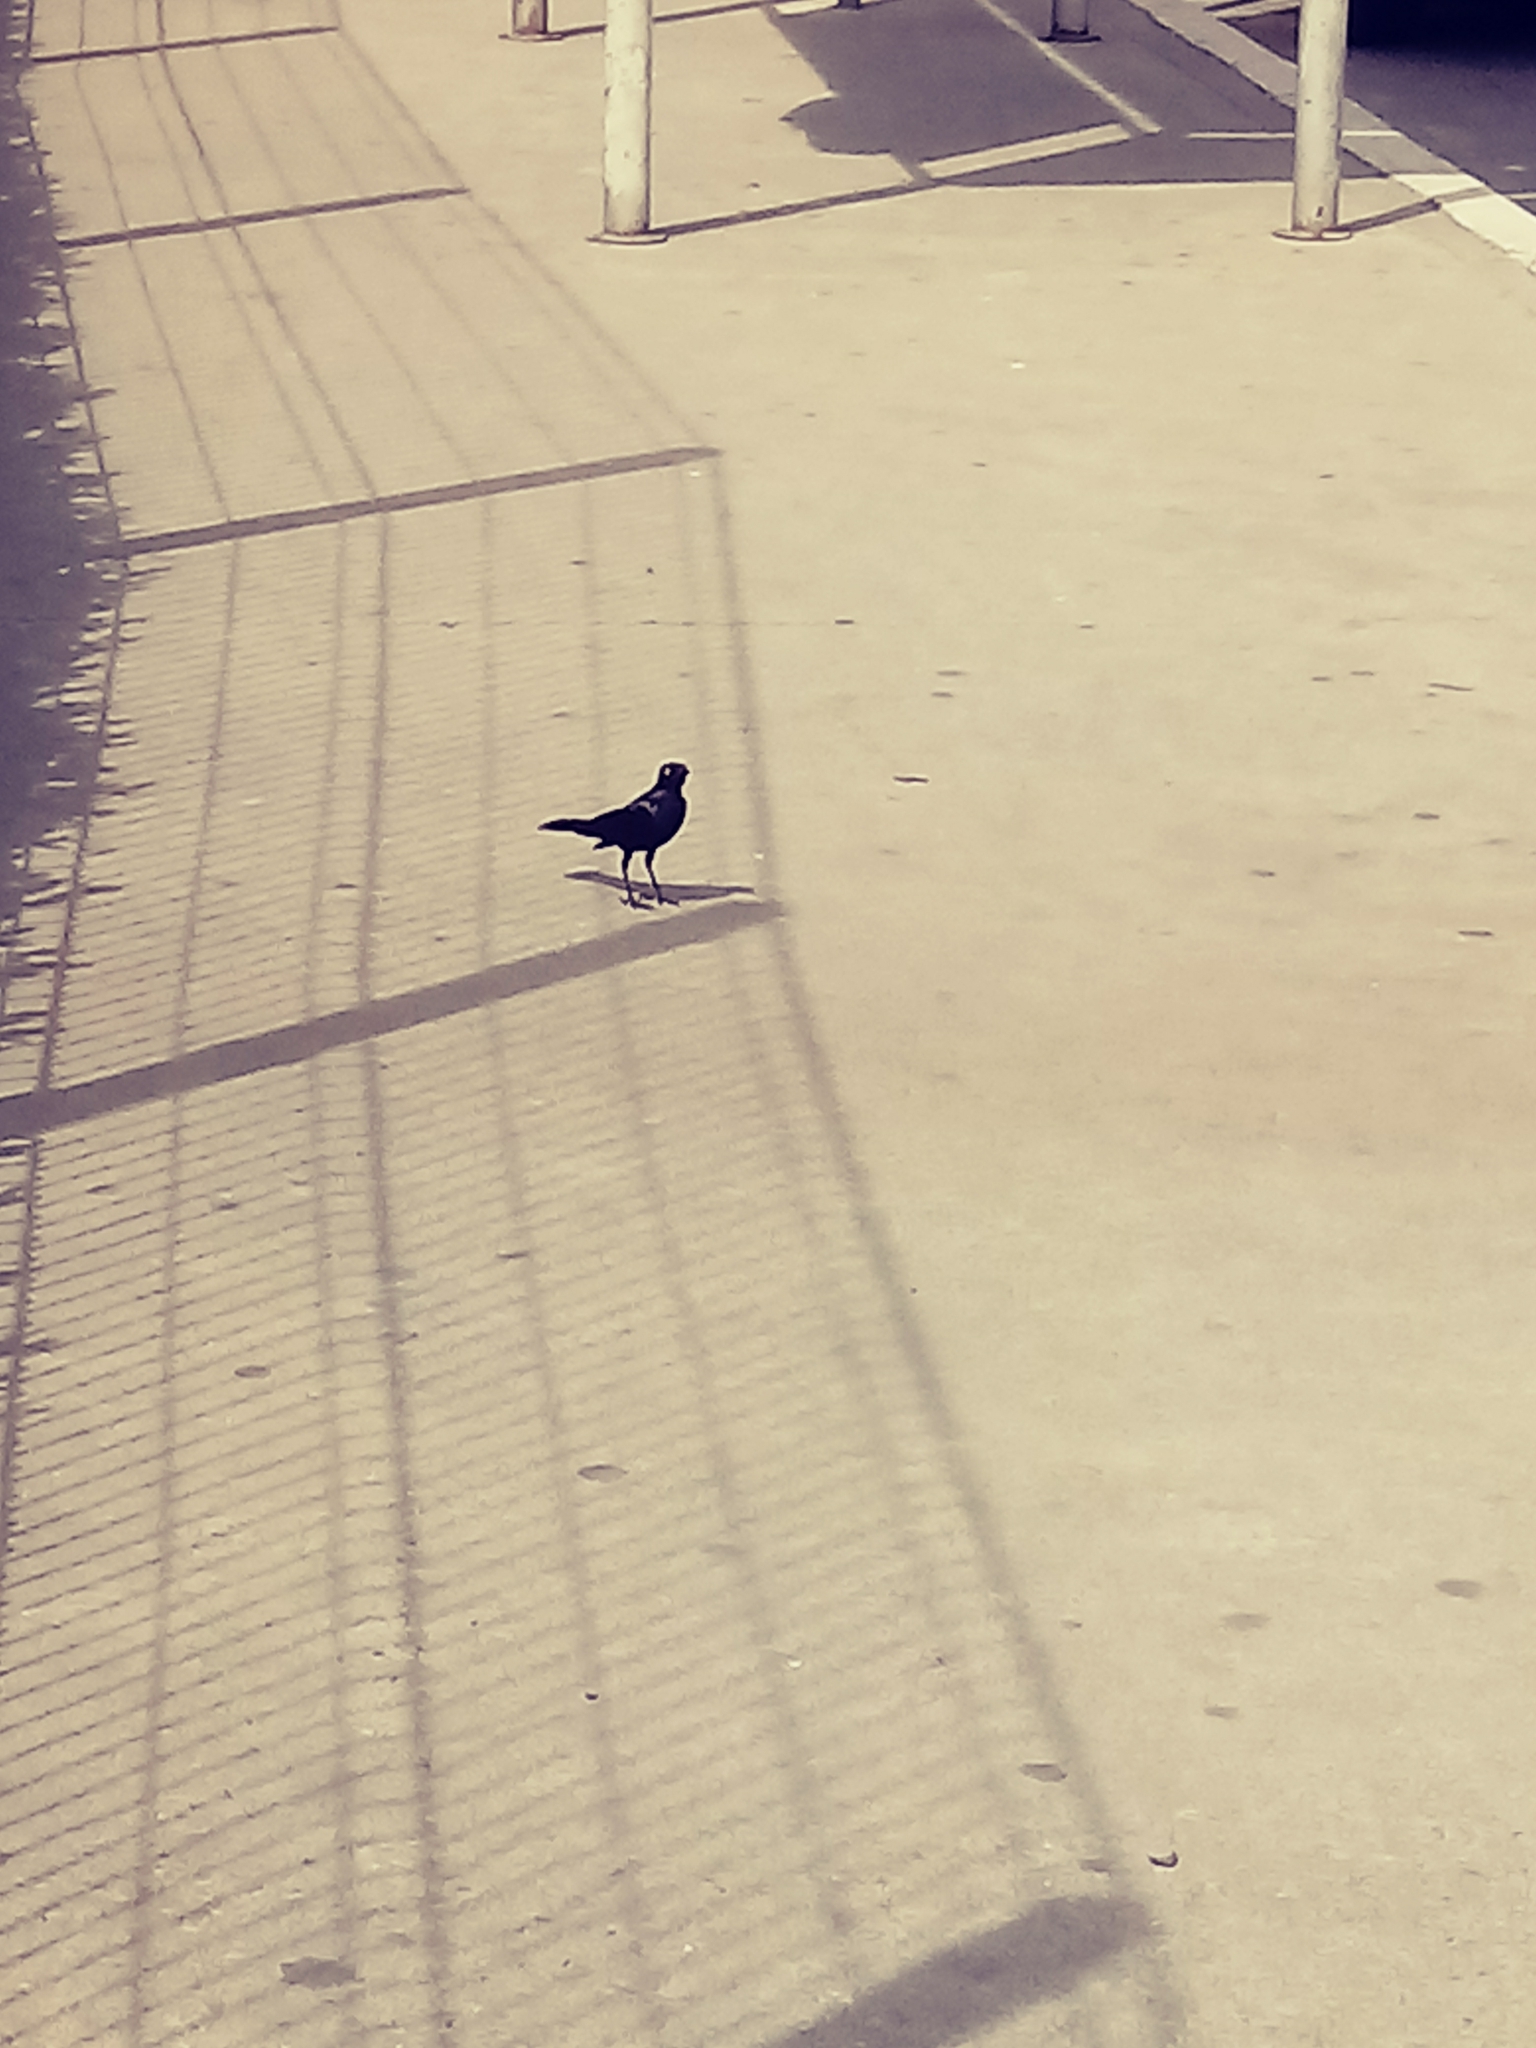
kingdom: Animalia
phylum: Chordata
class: Aves
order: Passeriformes
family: Icteridae
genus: Euphagus
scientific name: Euphagus cyanocephalus
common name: Brewer's blackbird
